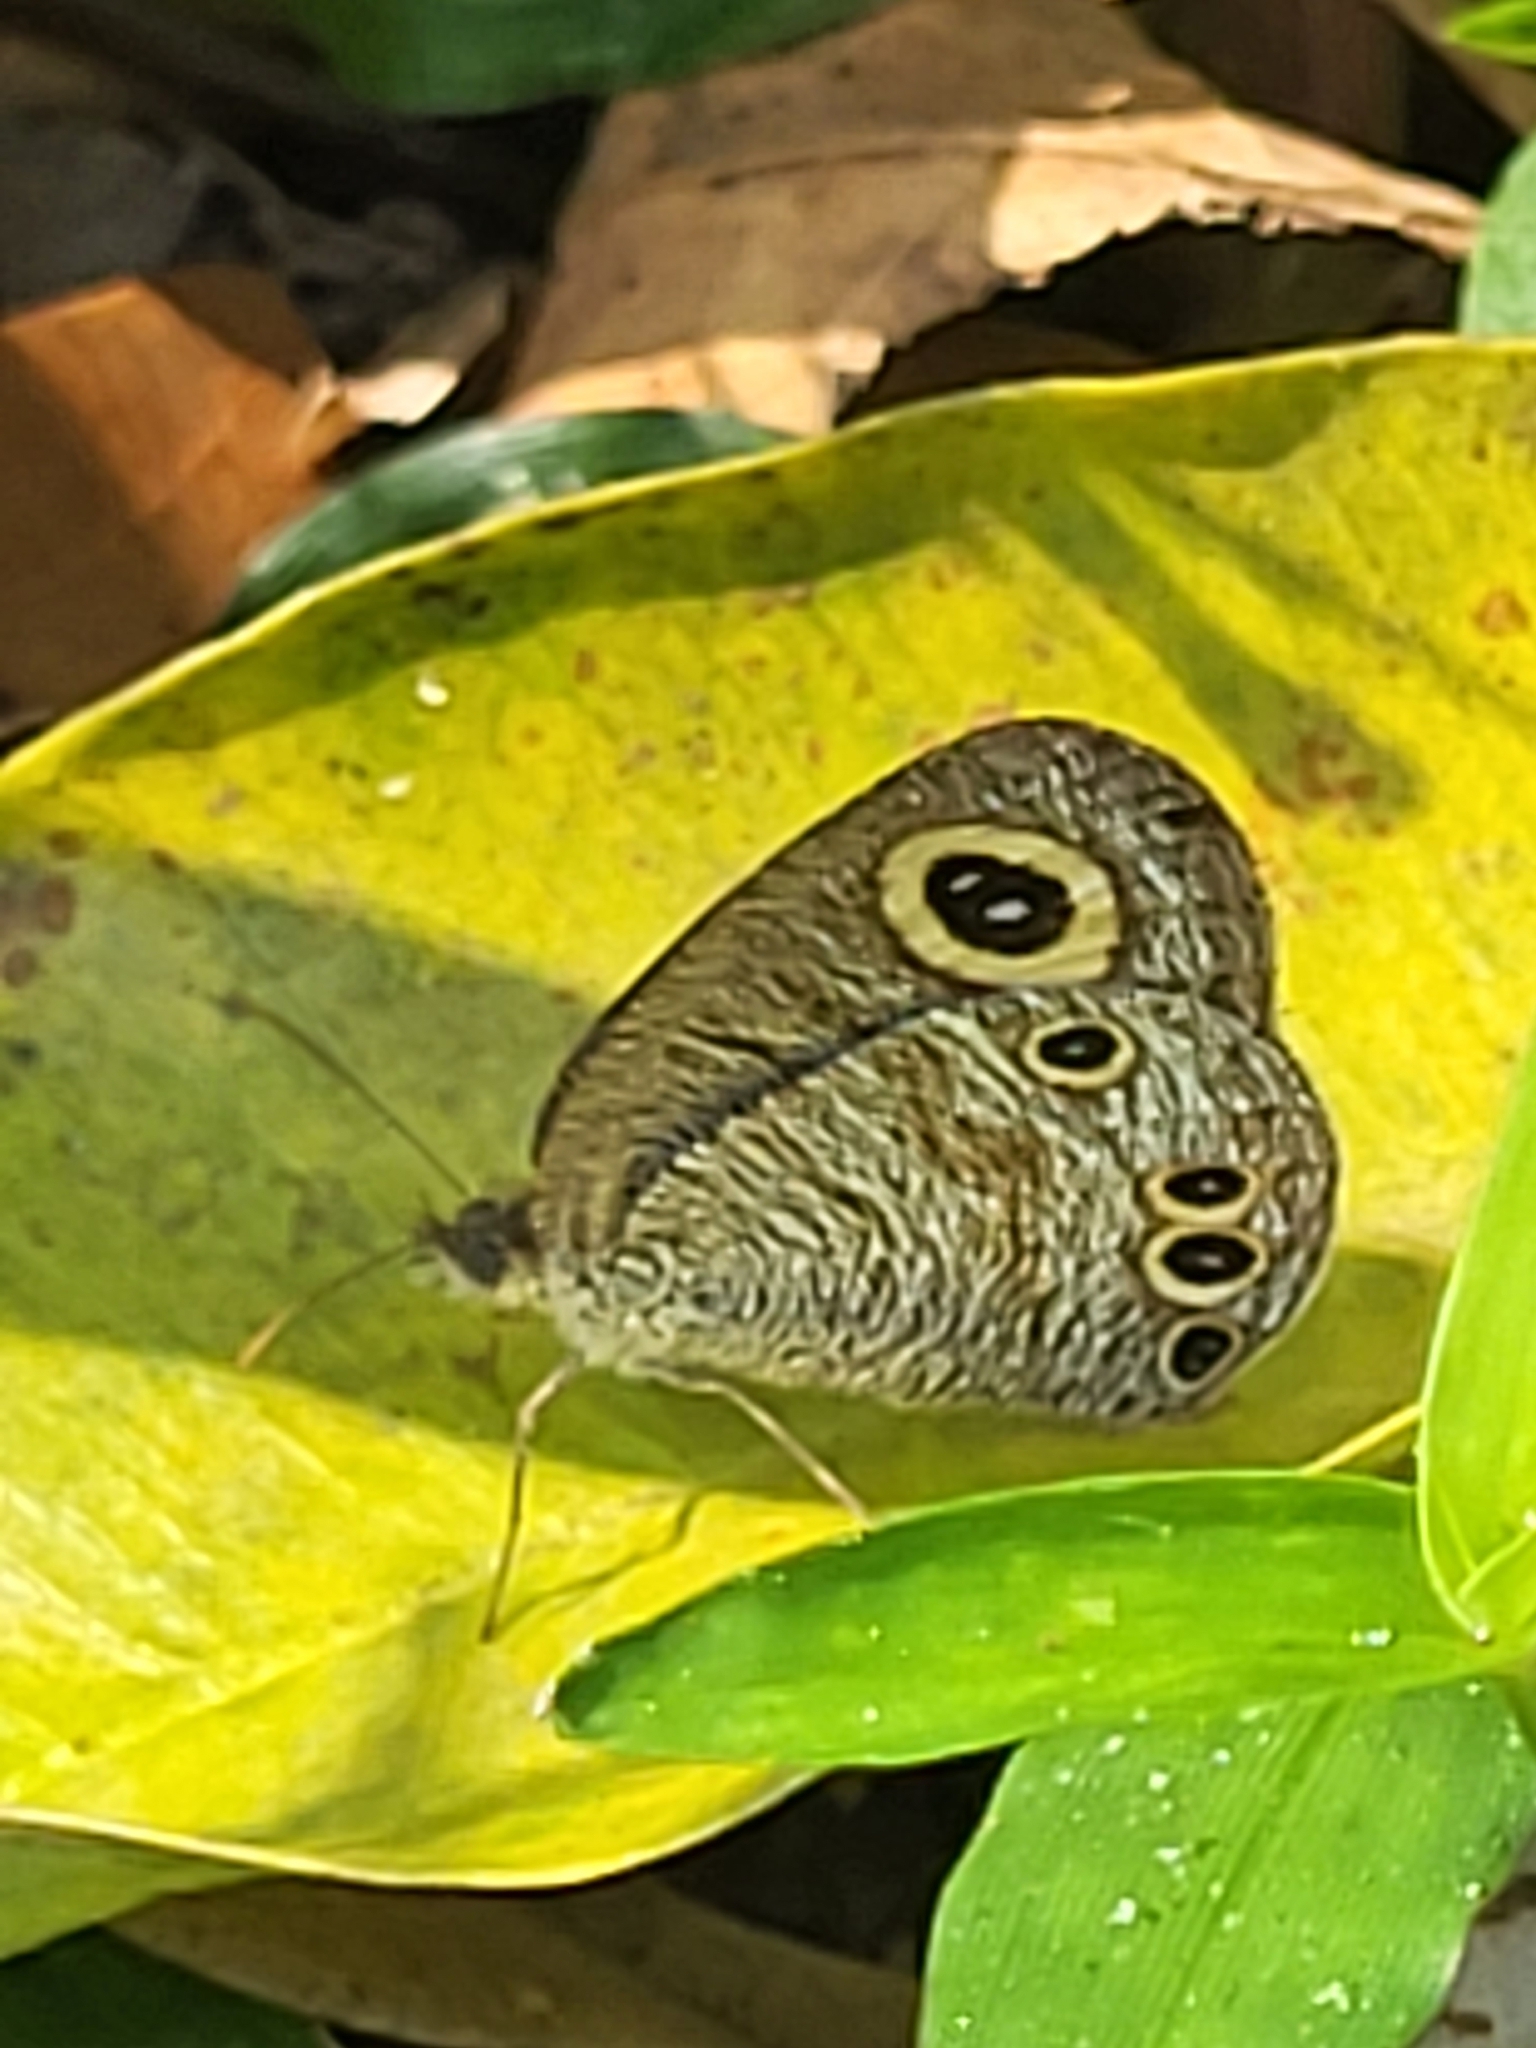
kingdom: Animalia
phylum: Arthropoda
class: Insecta
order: Lepidoptera
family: Nymphalidae
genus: Ypthima
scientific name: Ypthima huebneri
